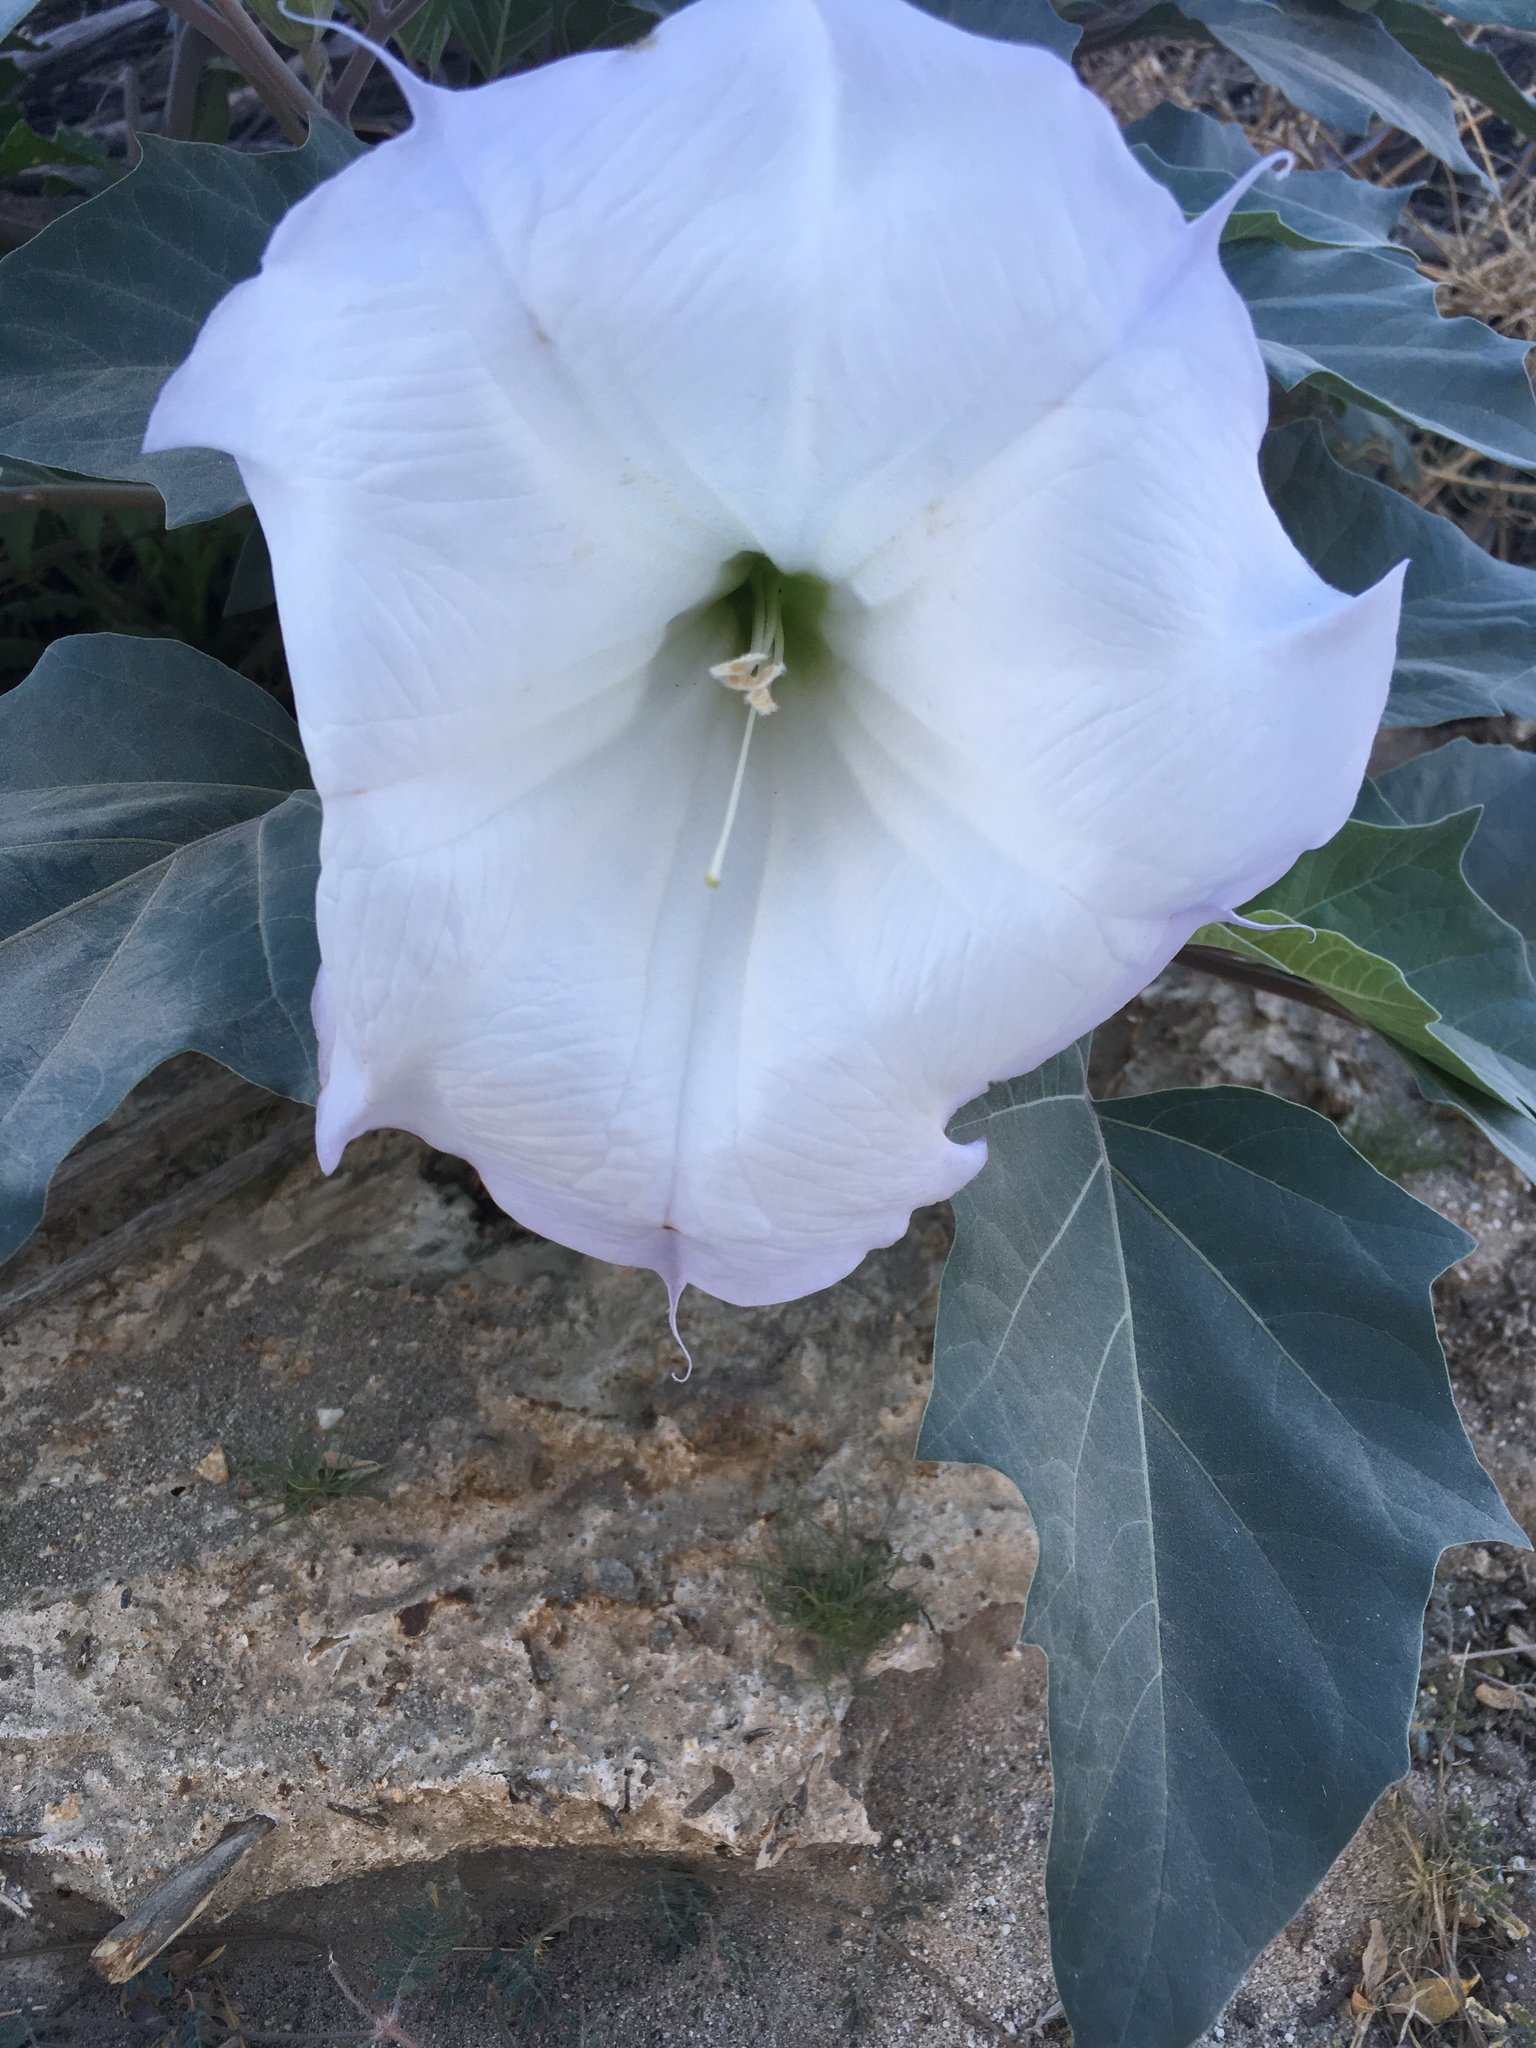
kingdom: Plantae
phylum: Tracheophyta
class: Magnoliopsida
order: Solanales
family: Solanaceae
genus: Datura
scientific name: Datura wrightii
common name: Sacred thorn-apple
